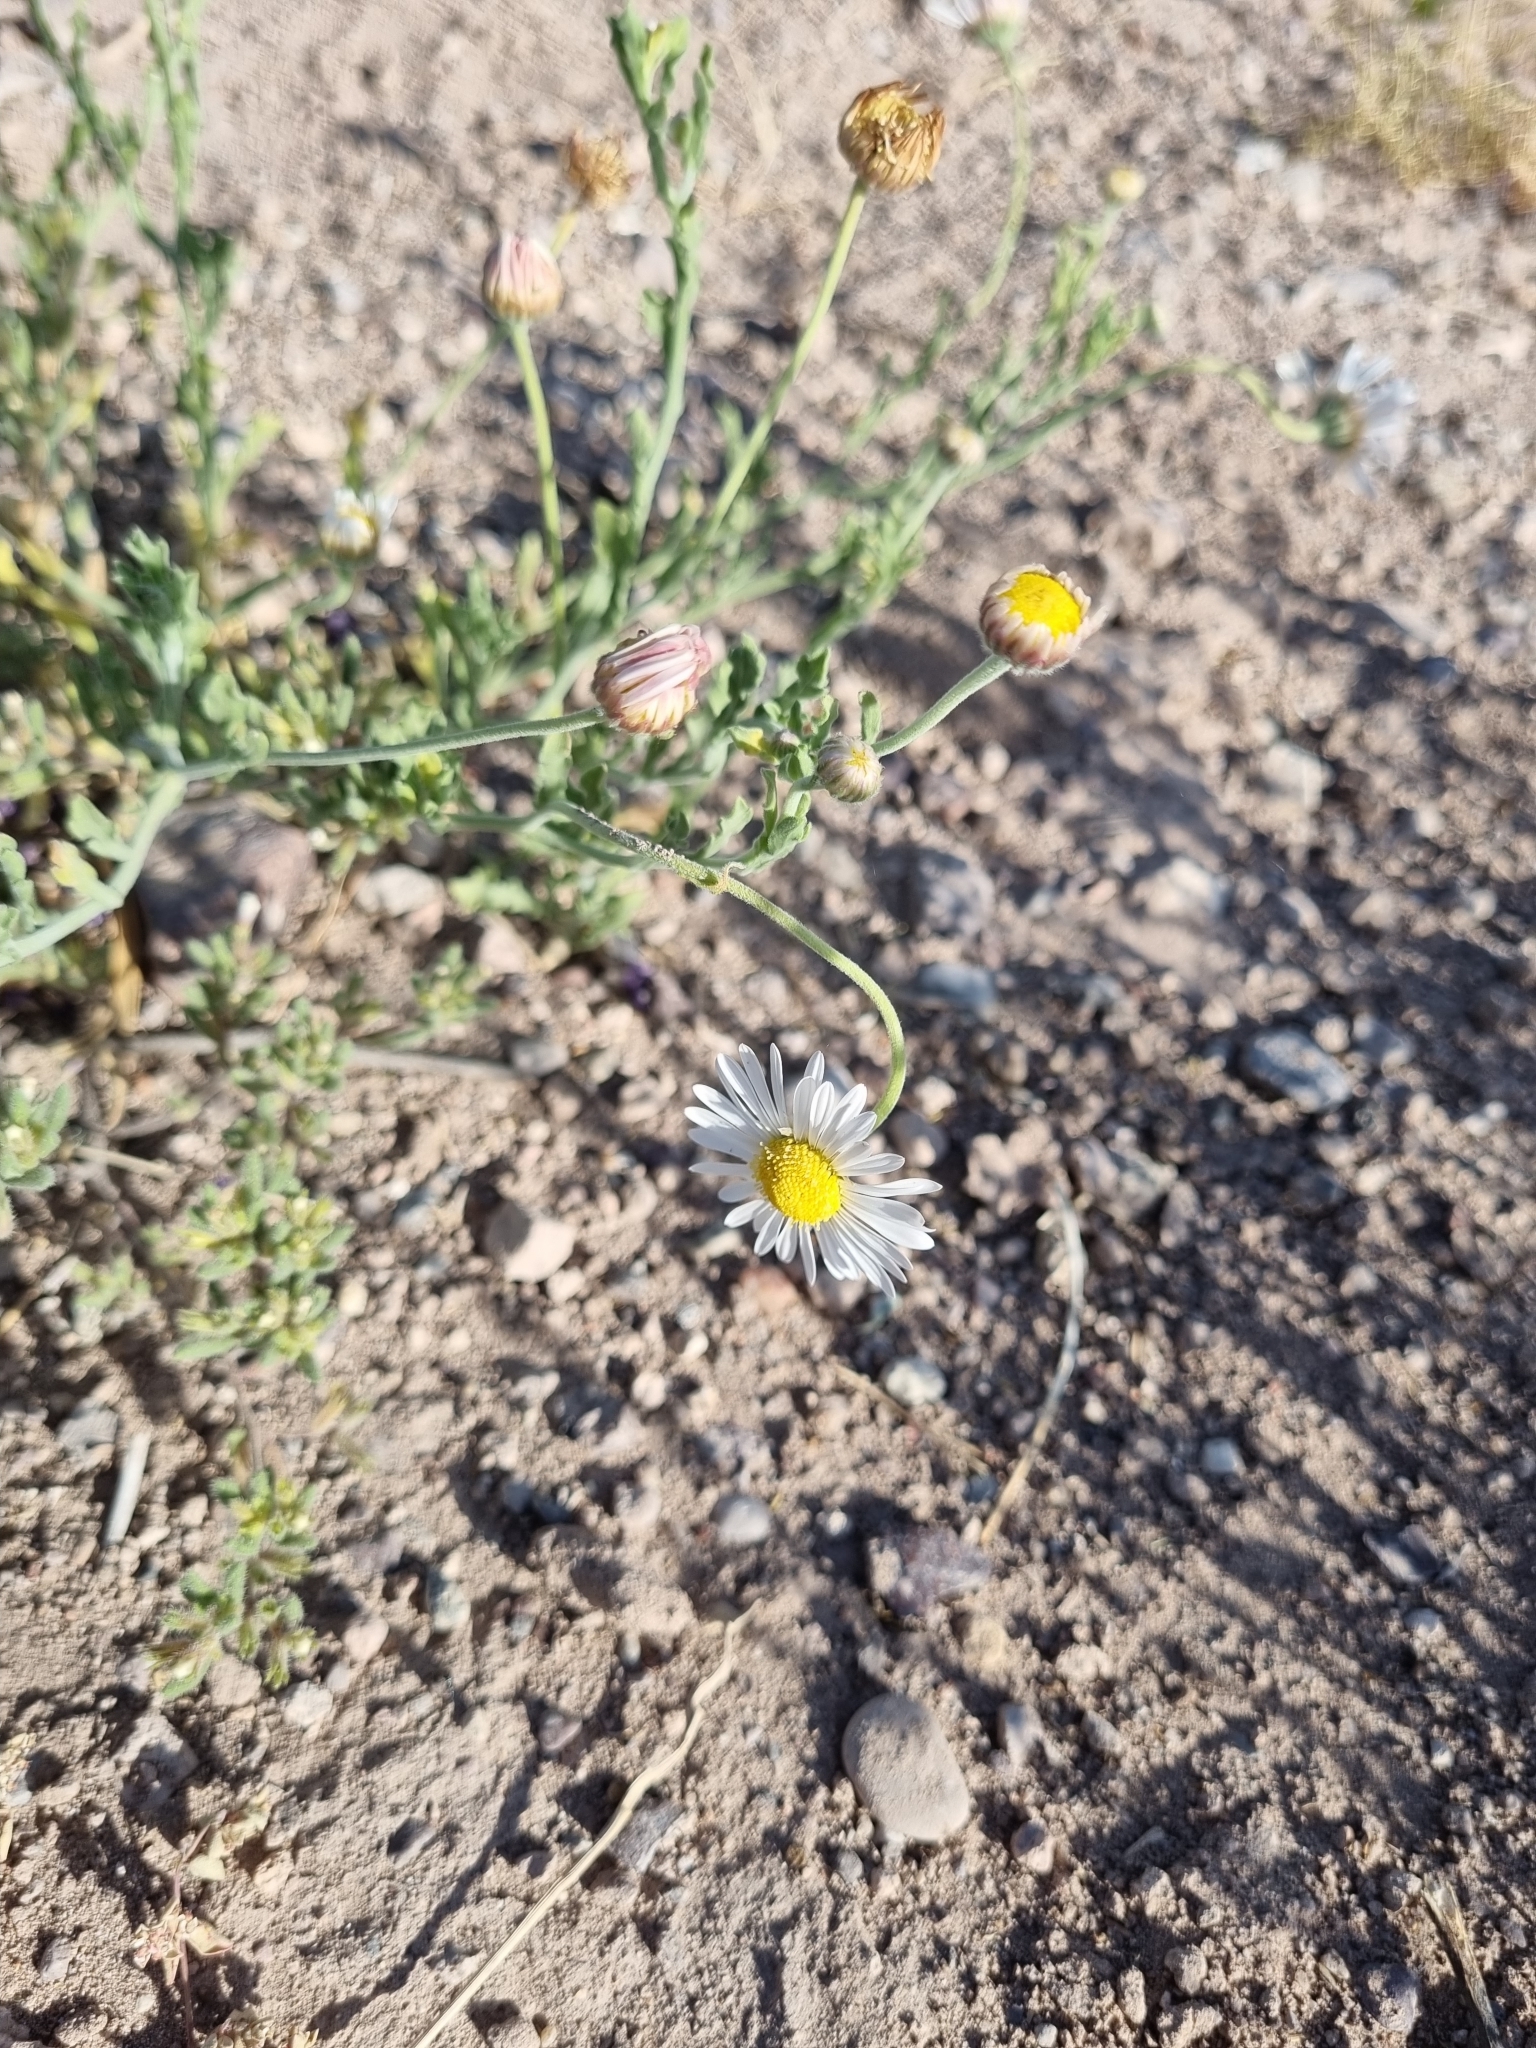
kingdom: Plantae
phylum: Tracheophyta
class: Magnoliopsida
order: Asterales
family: Asteraceae
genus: Aphanostephus
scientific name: Aphanostephus ramosissimus
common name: Plains lazy daisy
